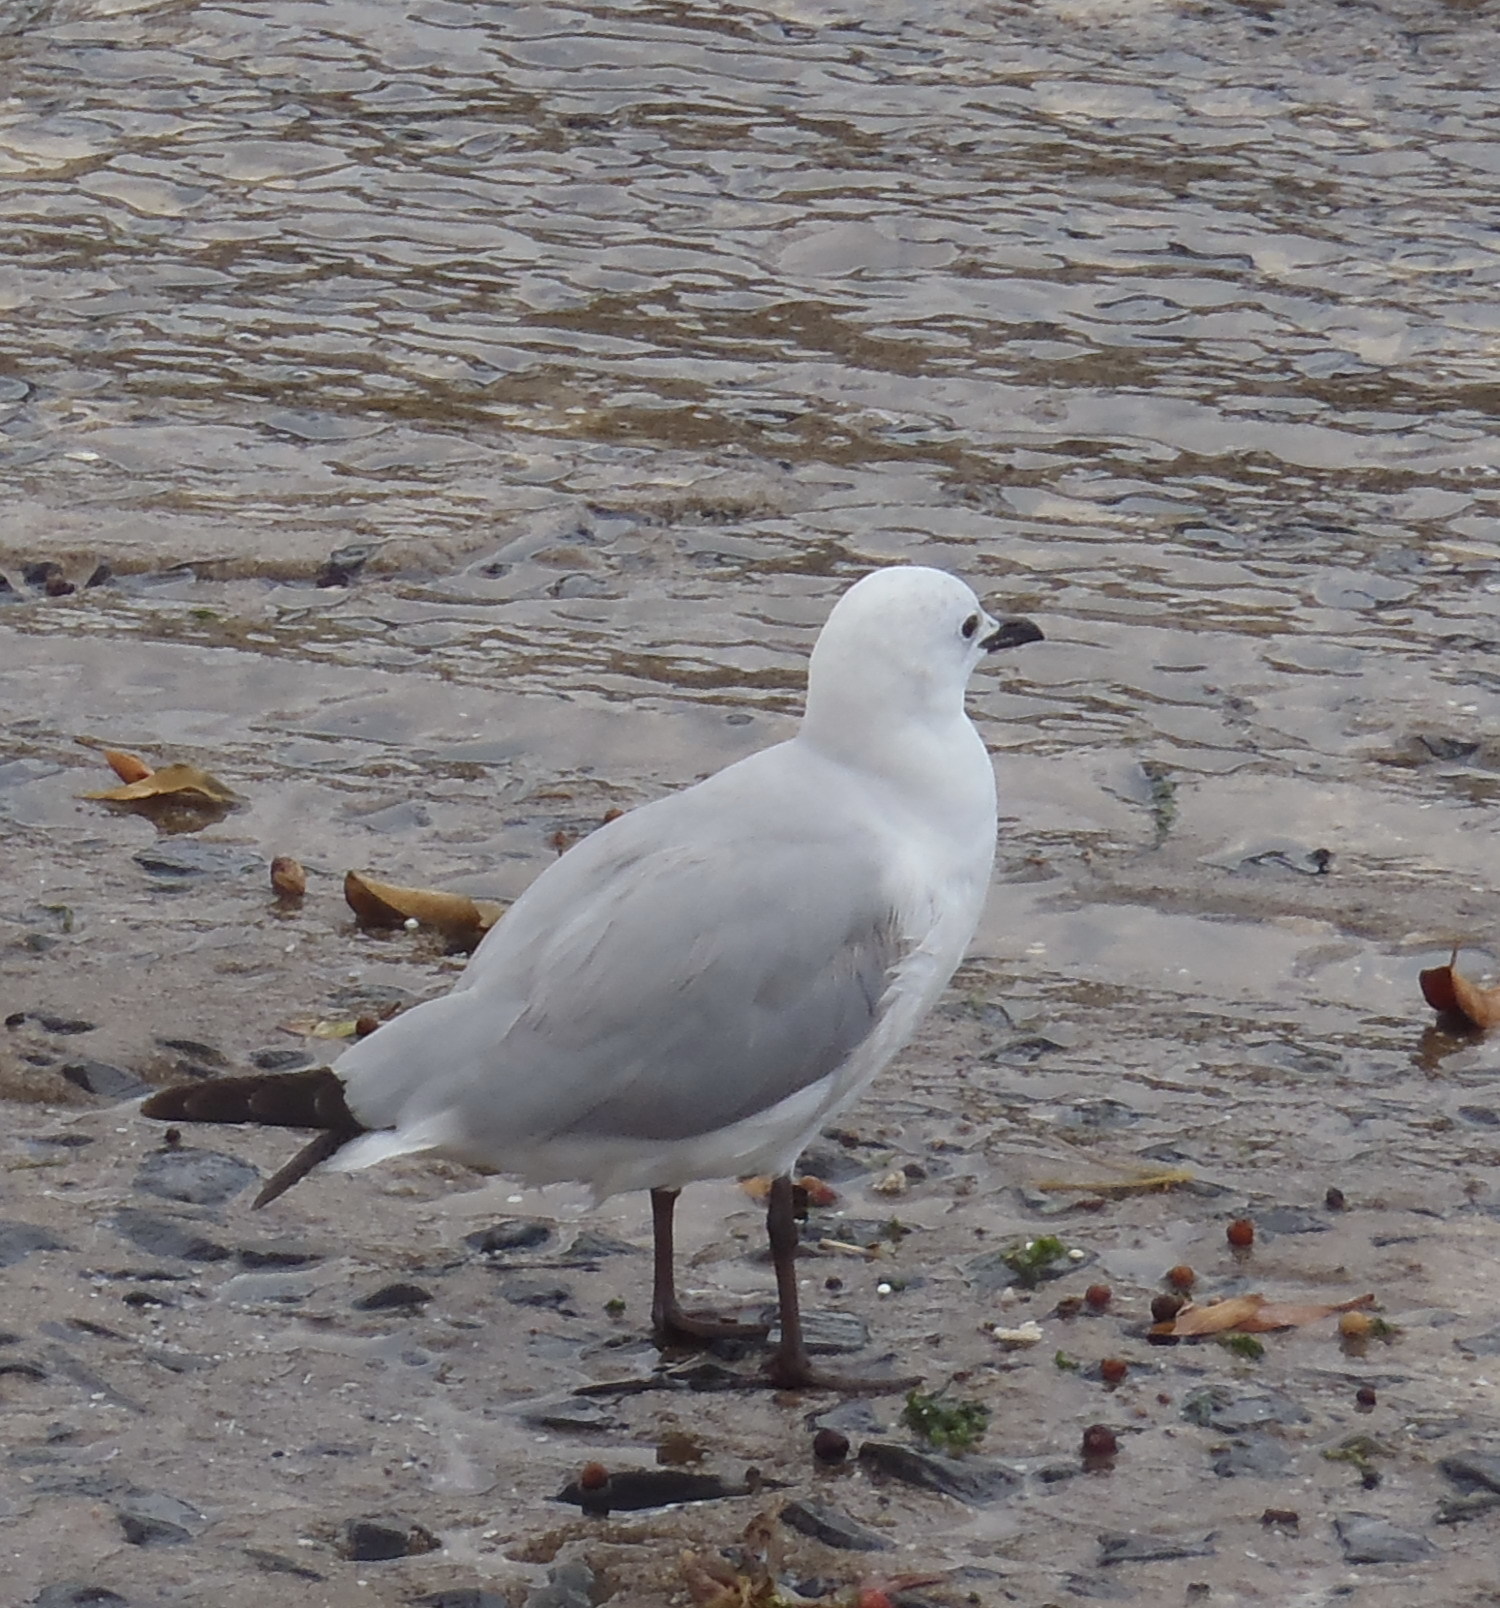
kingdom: Animalia
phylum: Chordata
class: Aves
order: Charadriiformes
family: Laridae
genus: Chroicocephalus
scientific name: Chroicocephalus hartlaubii
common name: Hartlaub's gull
